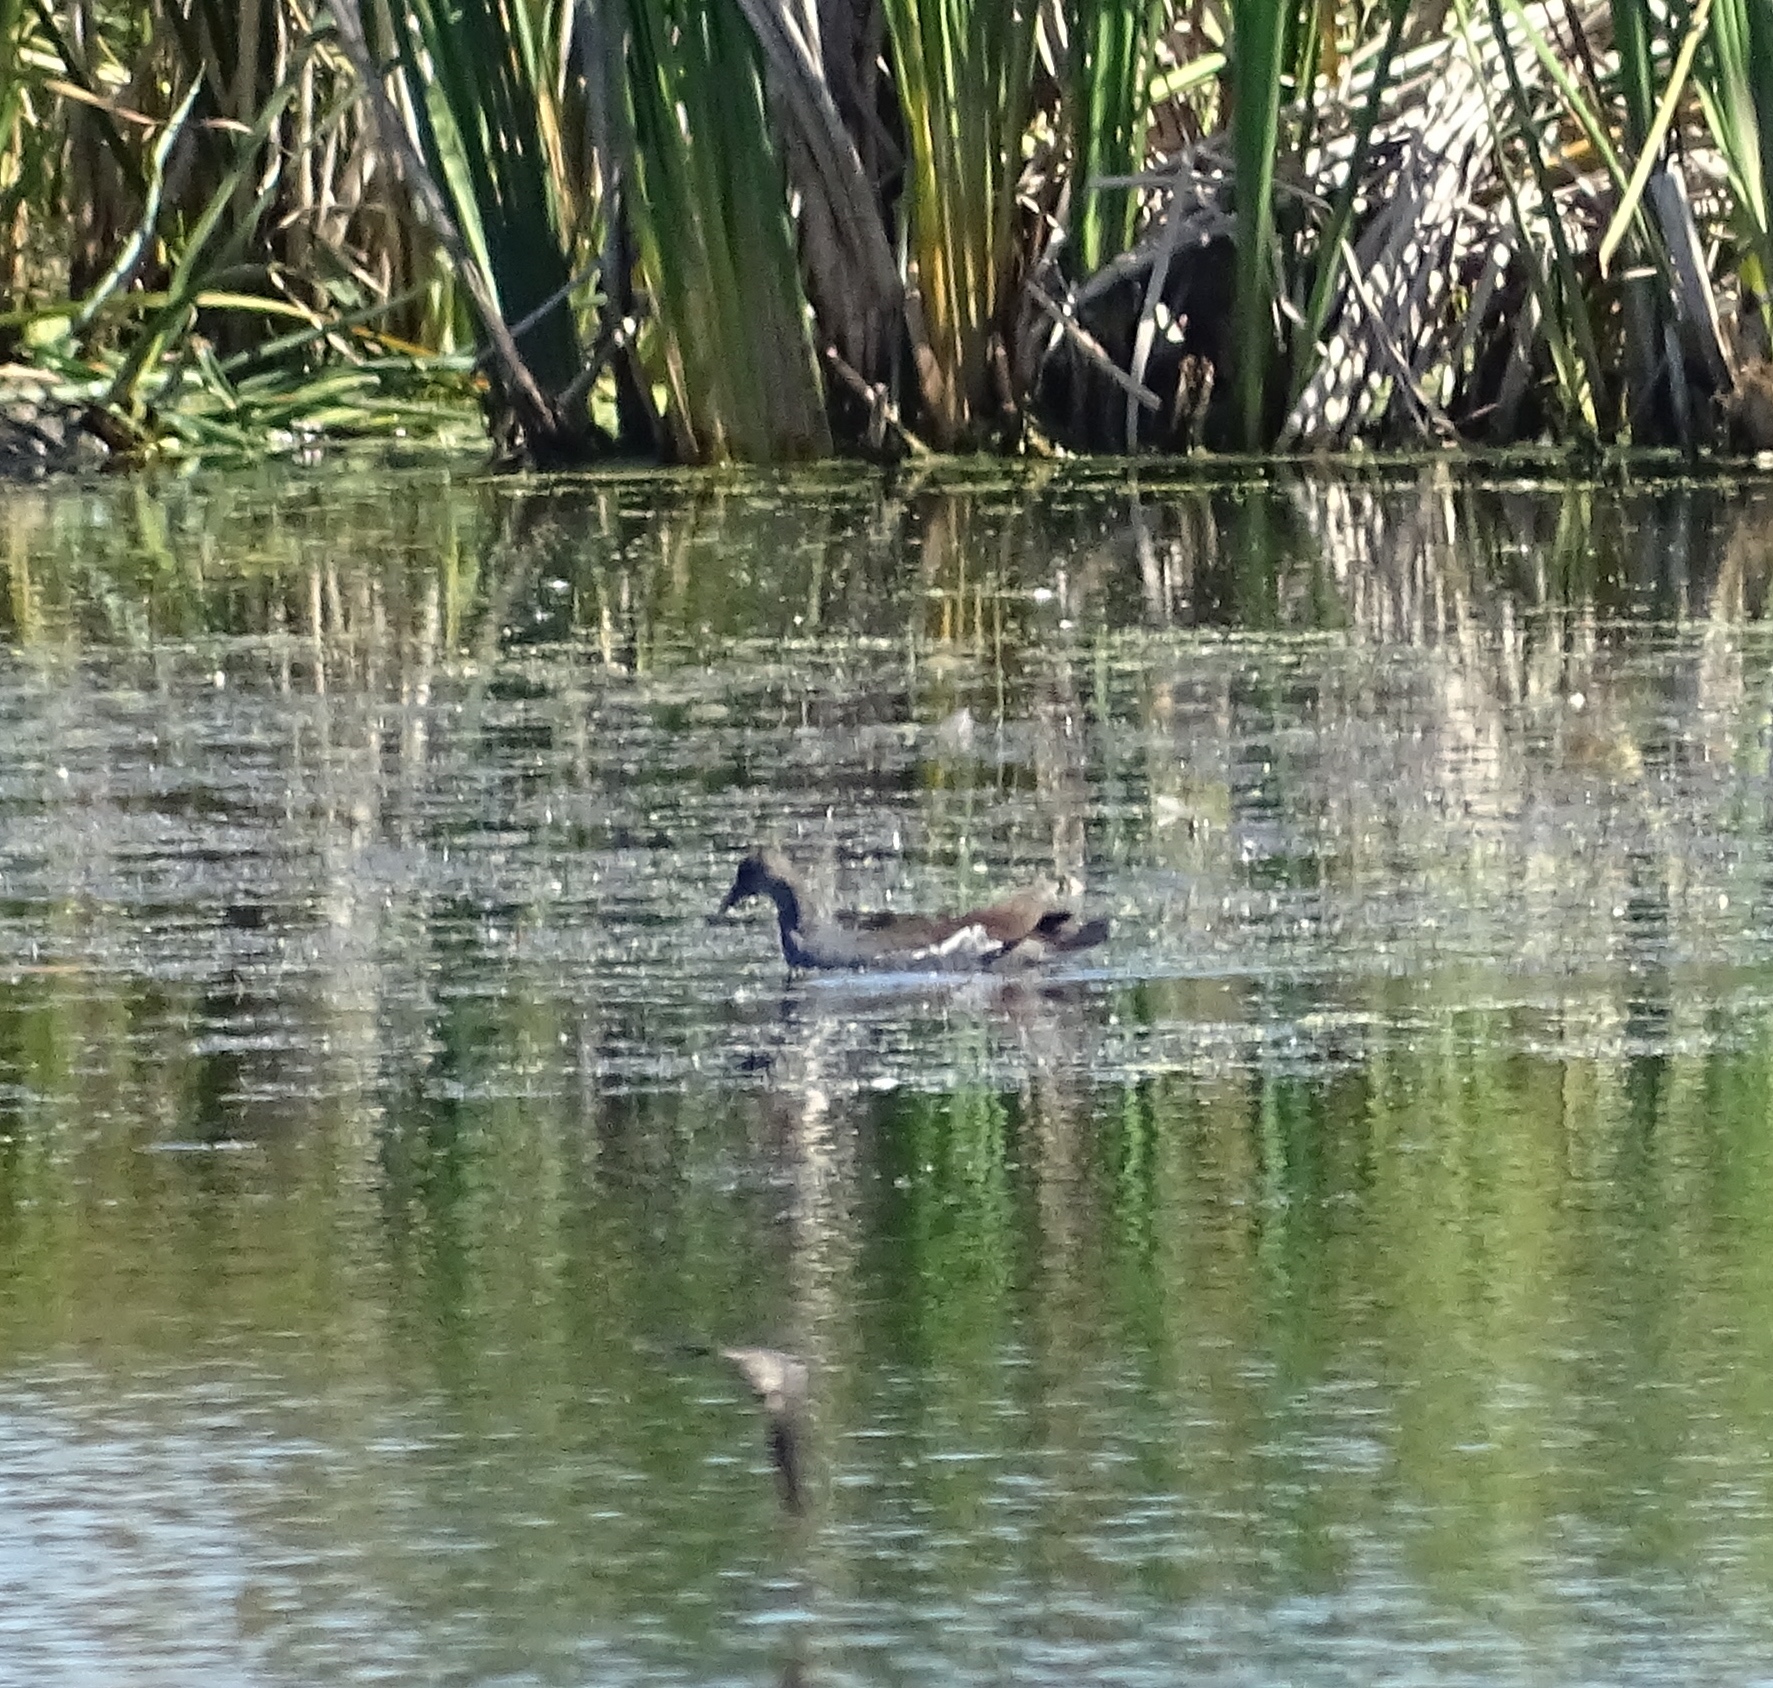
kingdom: Animalia
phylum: Chordata
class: Aves
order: Gruiformes
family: Rallidae
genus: Gallinula
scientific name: Gallinula chloropus
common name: Common moorhen
